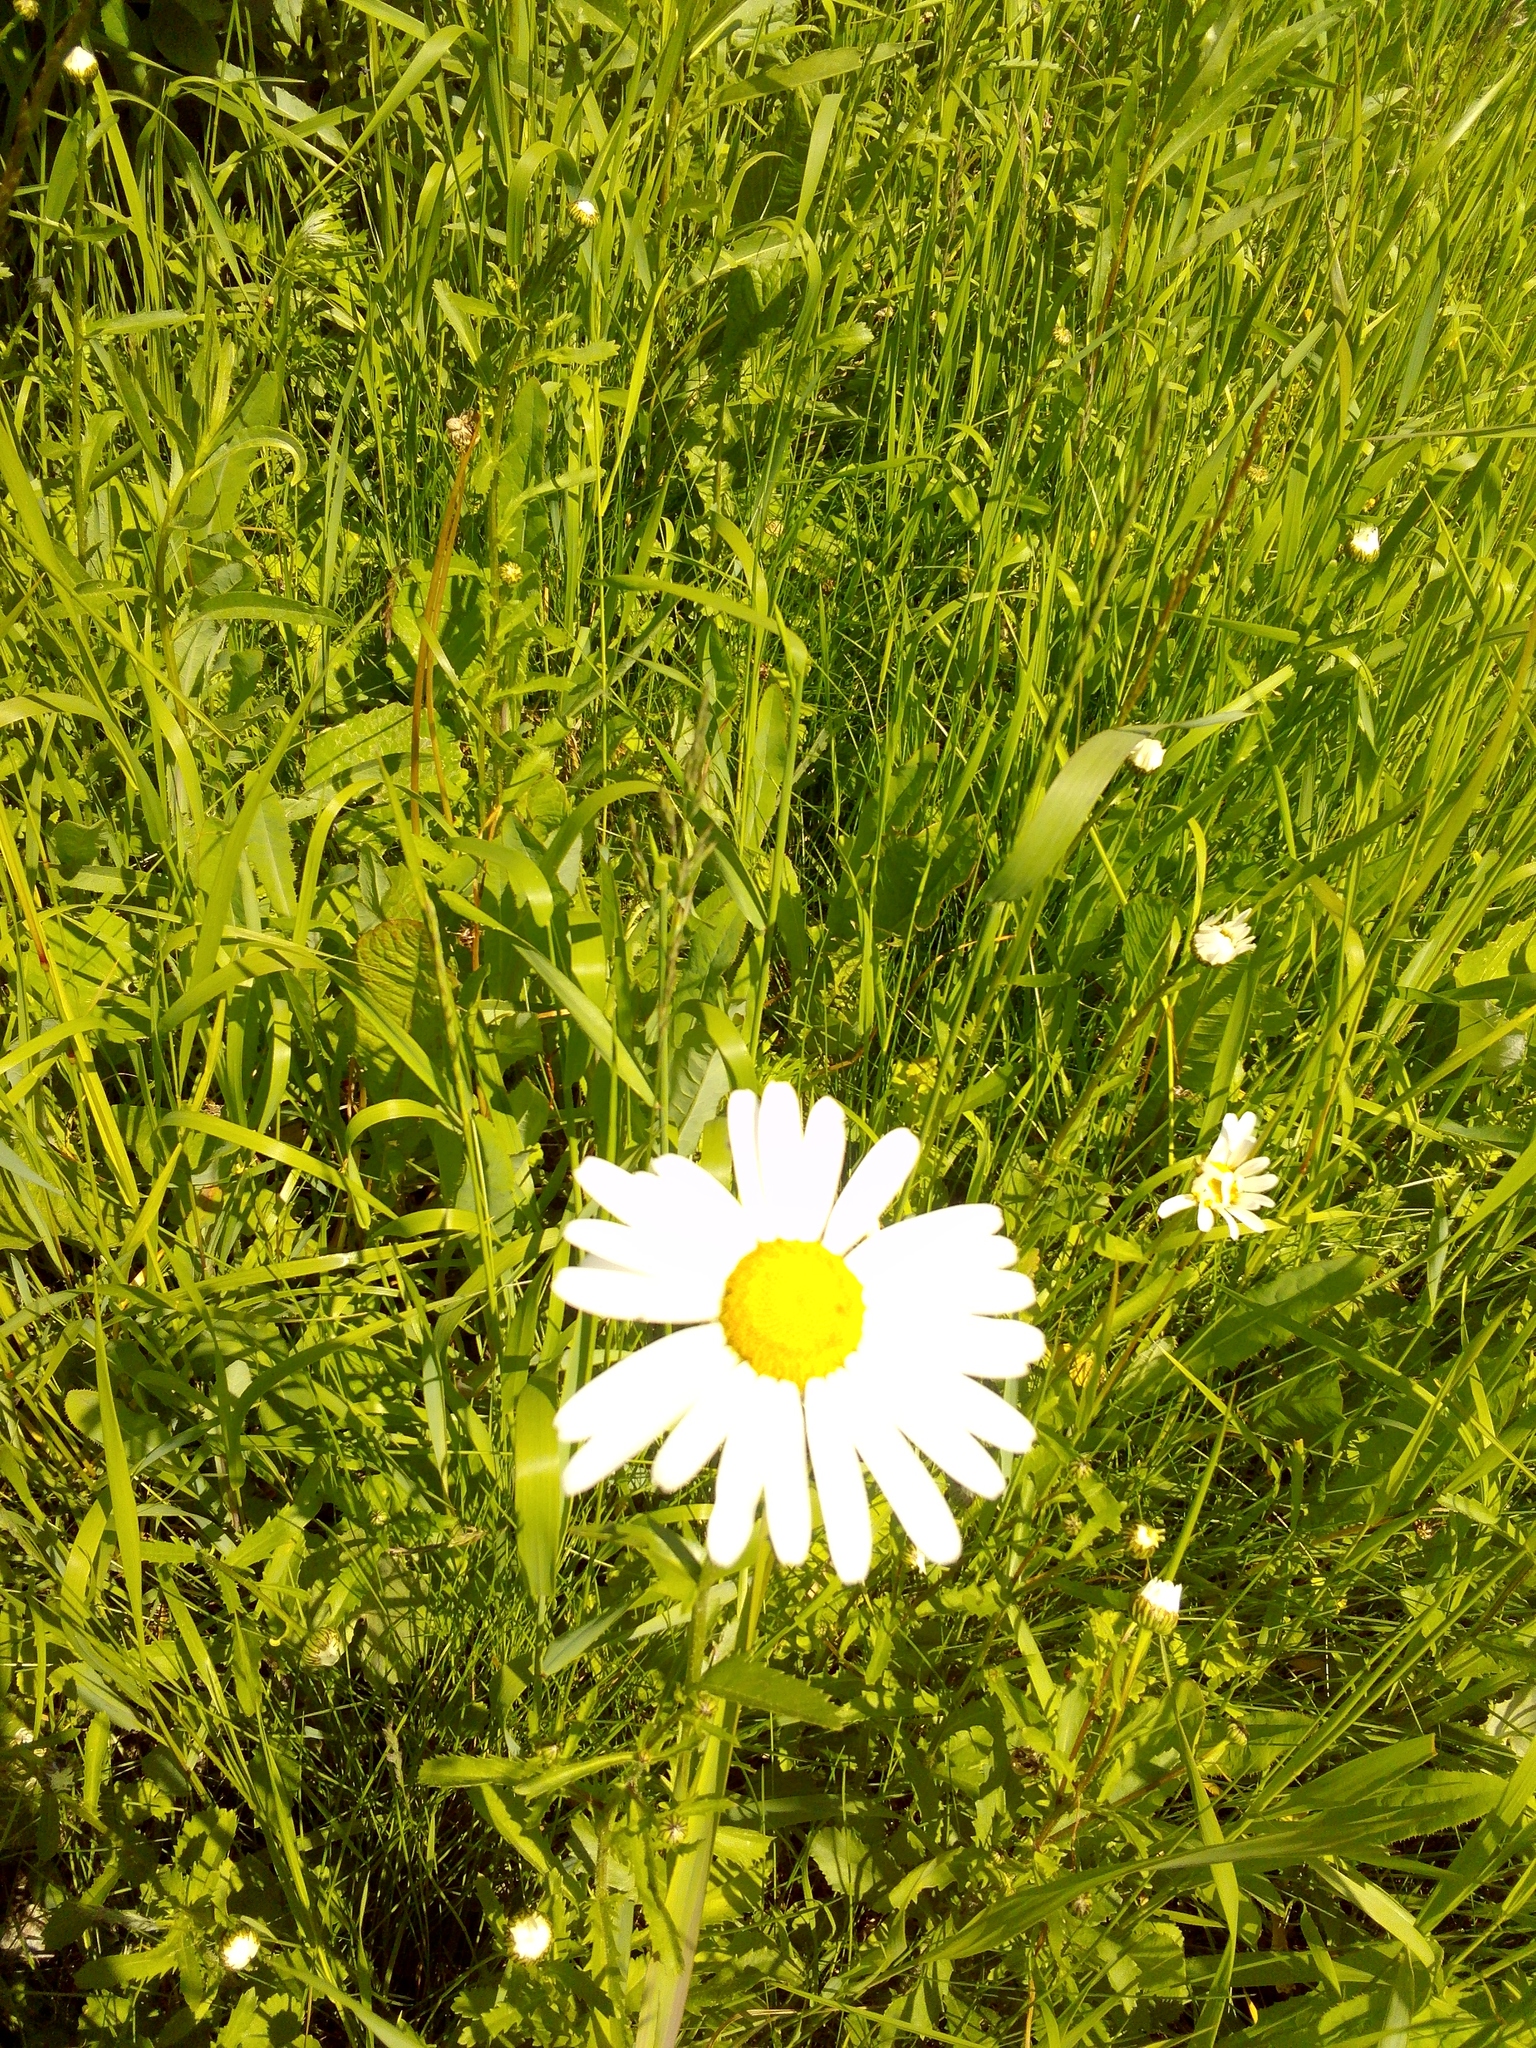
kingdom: Plantae
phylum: Tracheophyta
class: Magnoliopsida
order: Asterales
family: Asteraceae
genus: Leucanthemum
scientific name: Leucanthemum ircutianum
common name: Daisy
